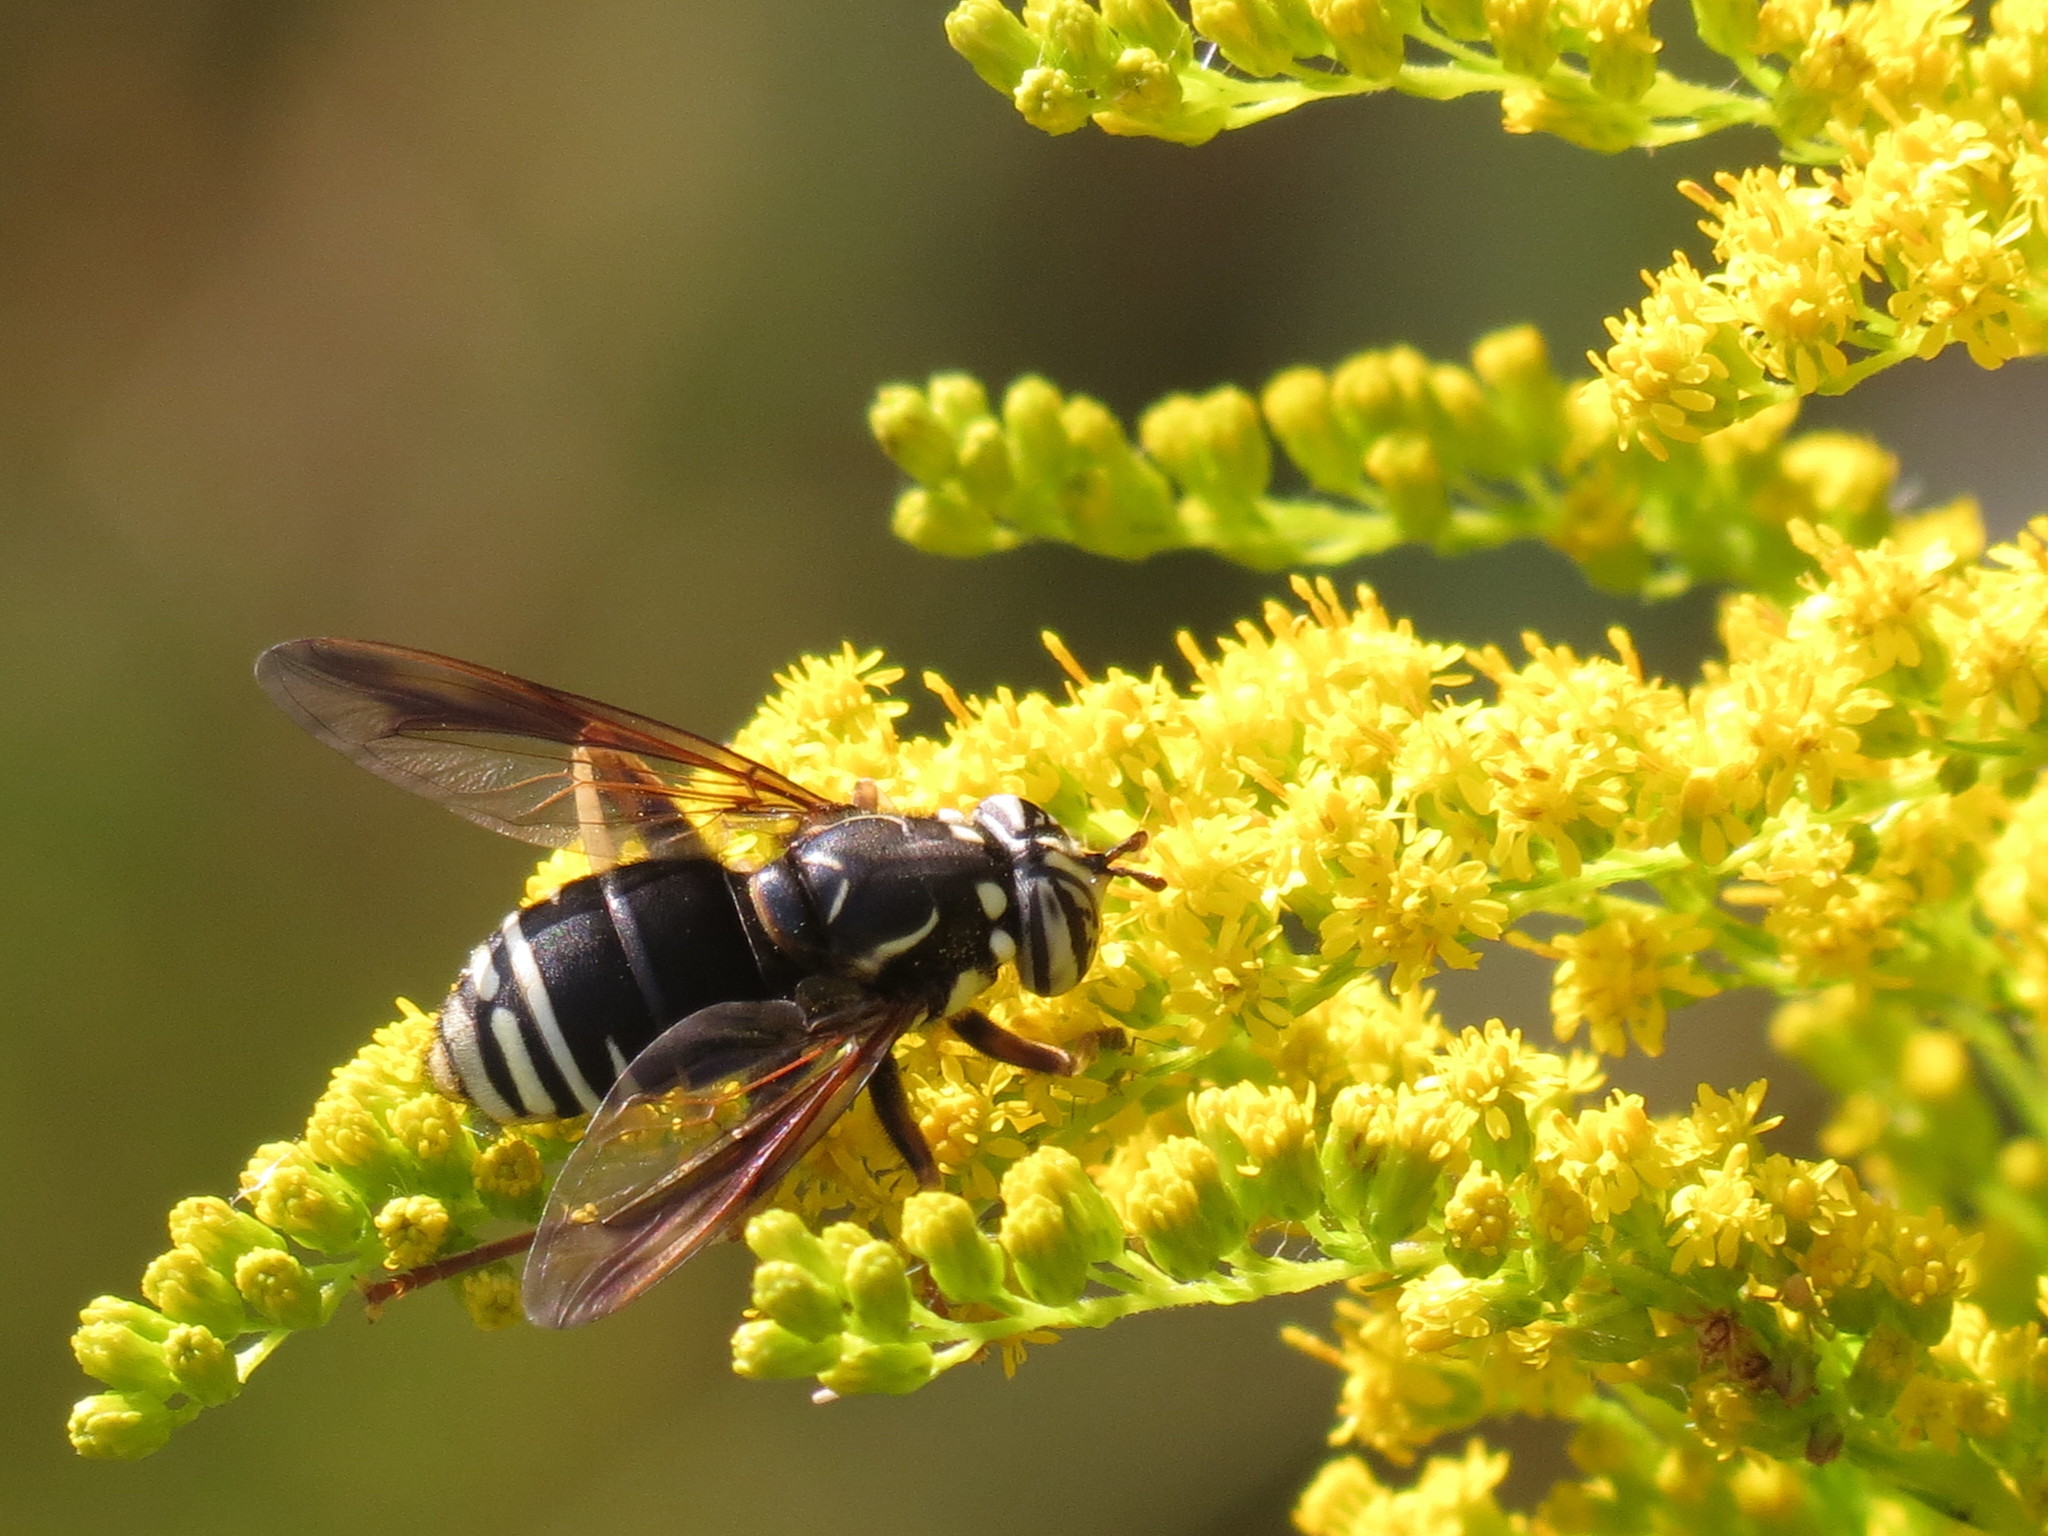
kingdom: Animalia
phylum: Arthropoda
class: Insecta
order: Diptera
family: Syrphidae
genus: Spilomyia
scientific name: Spilomyia fusca
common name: Bald-faced hornet fly
